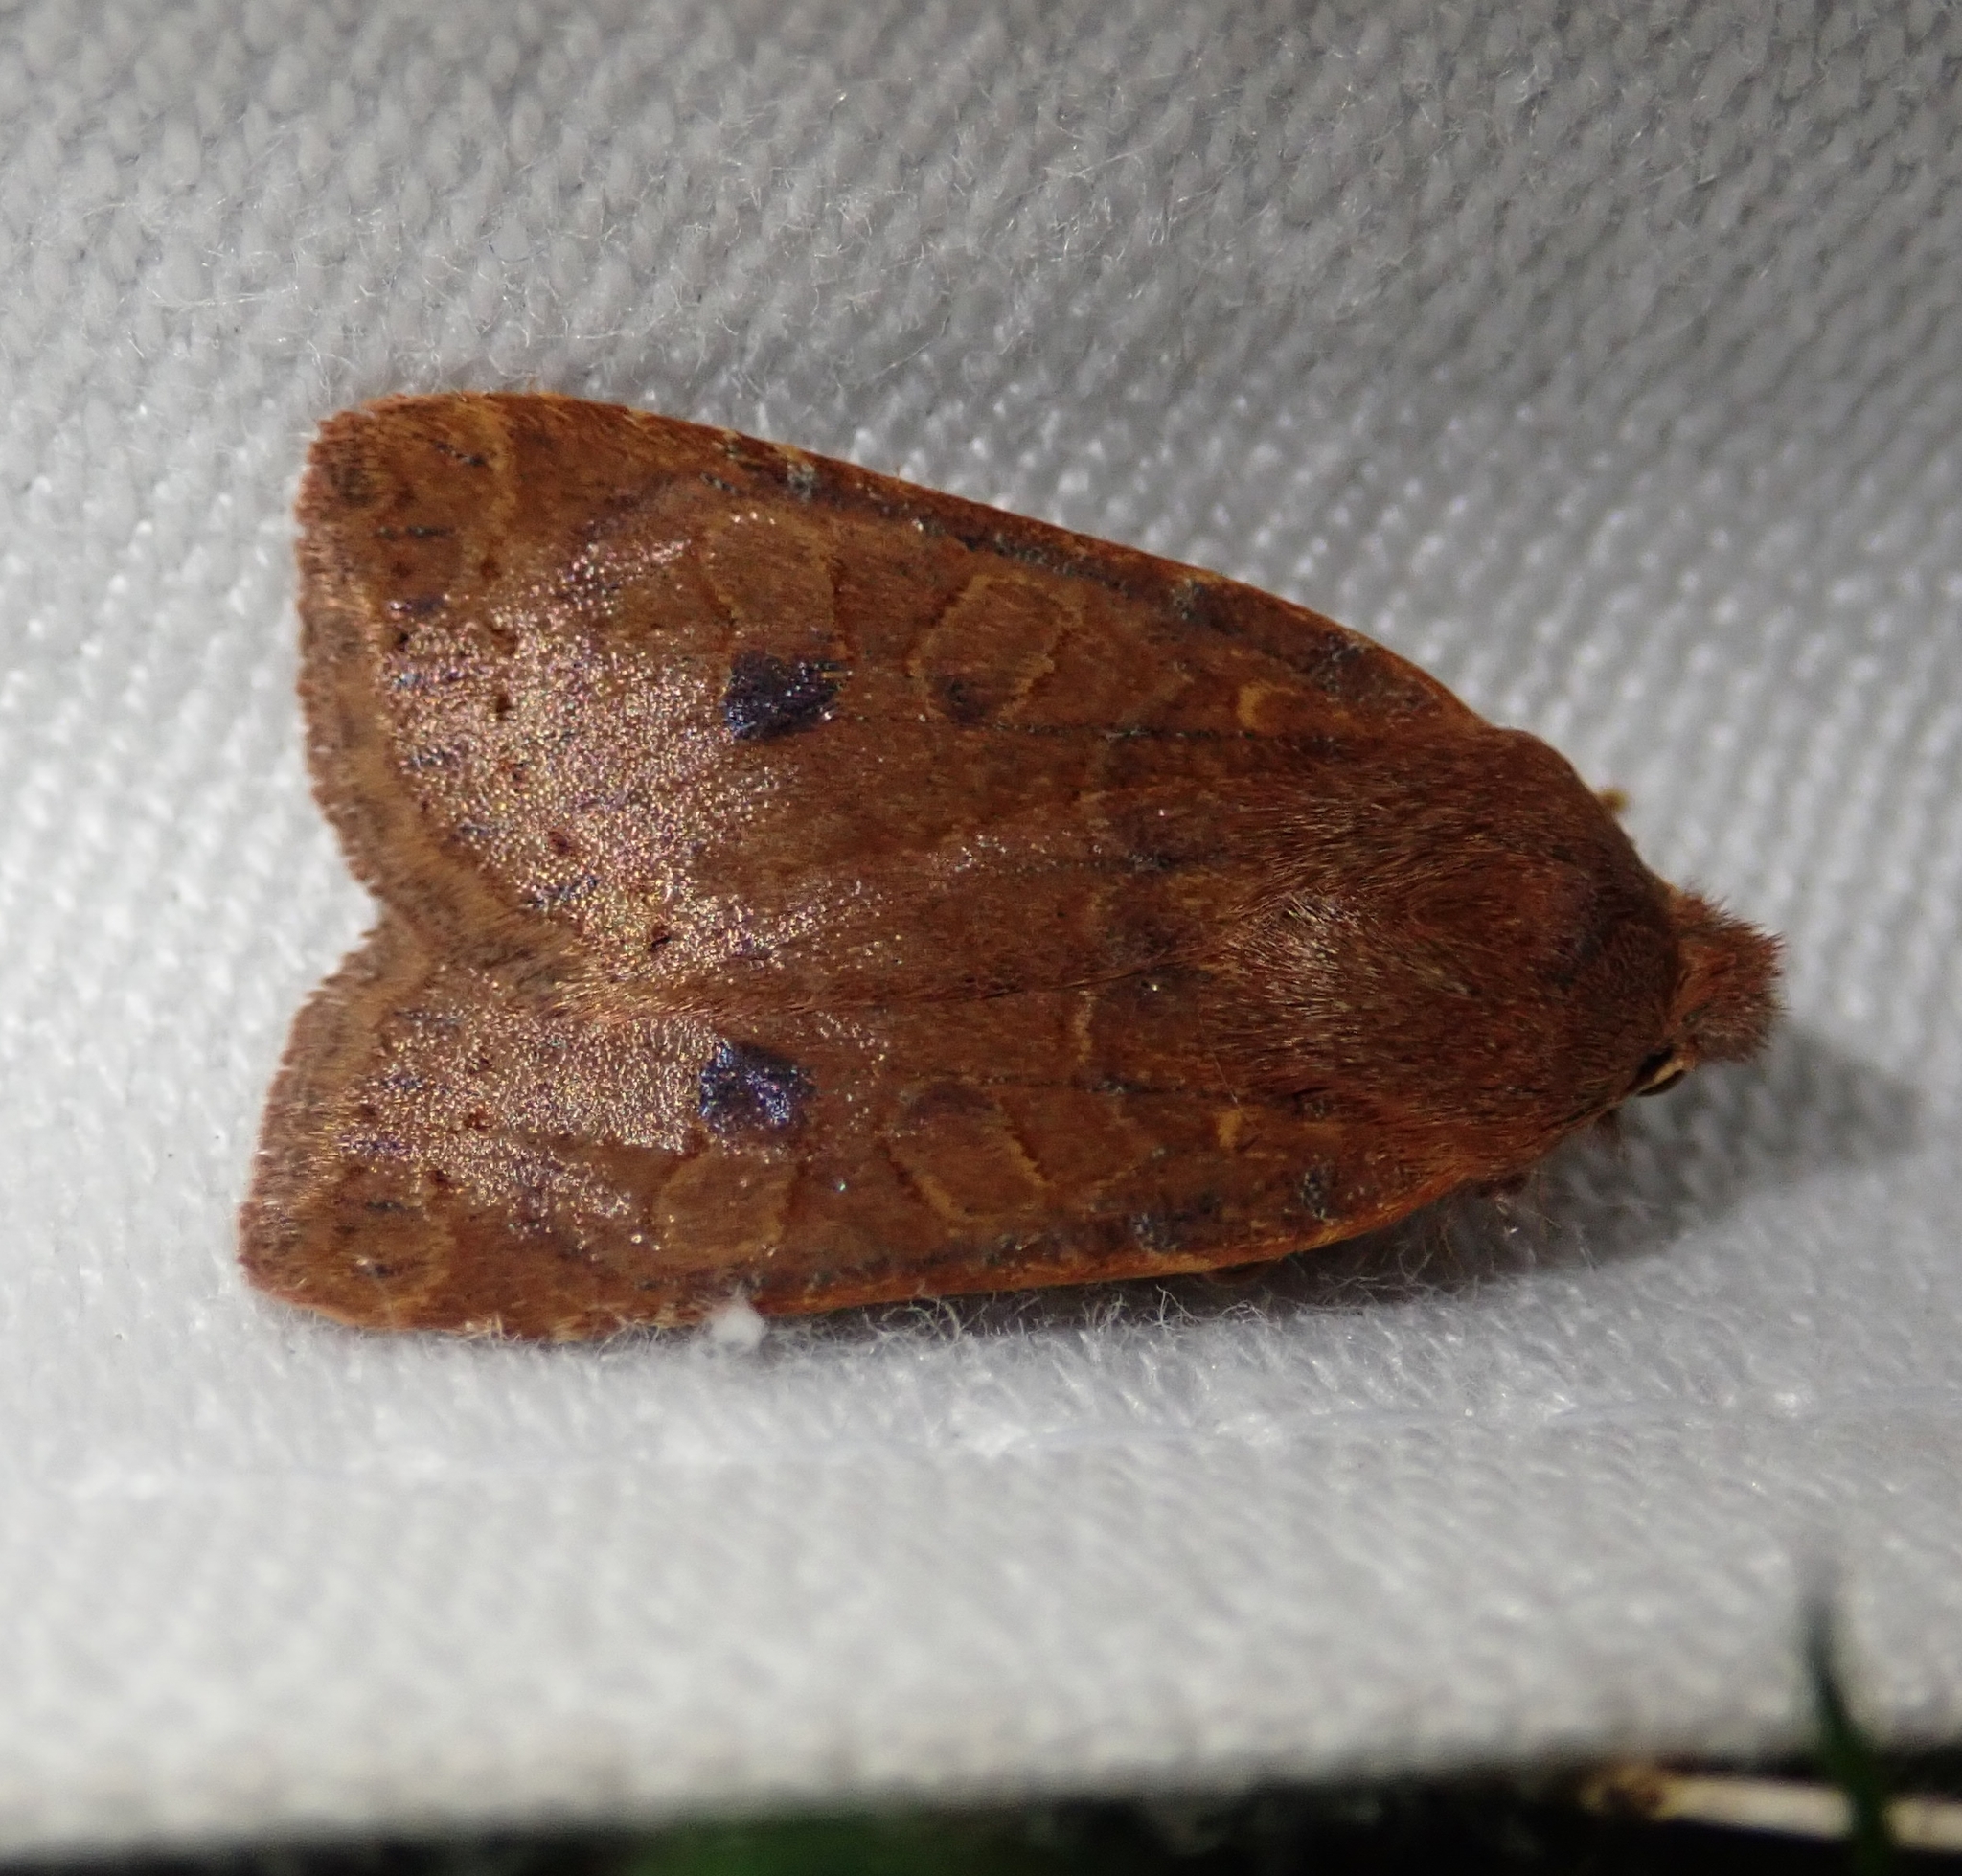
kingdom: Animalia
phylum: Arthropoda
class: Insecta
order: Lepidoptera
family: Noctuidae
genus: Conistra
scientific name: Conistra vaccinii
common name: Chestnut
